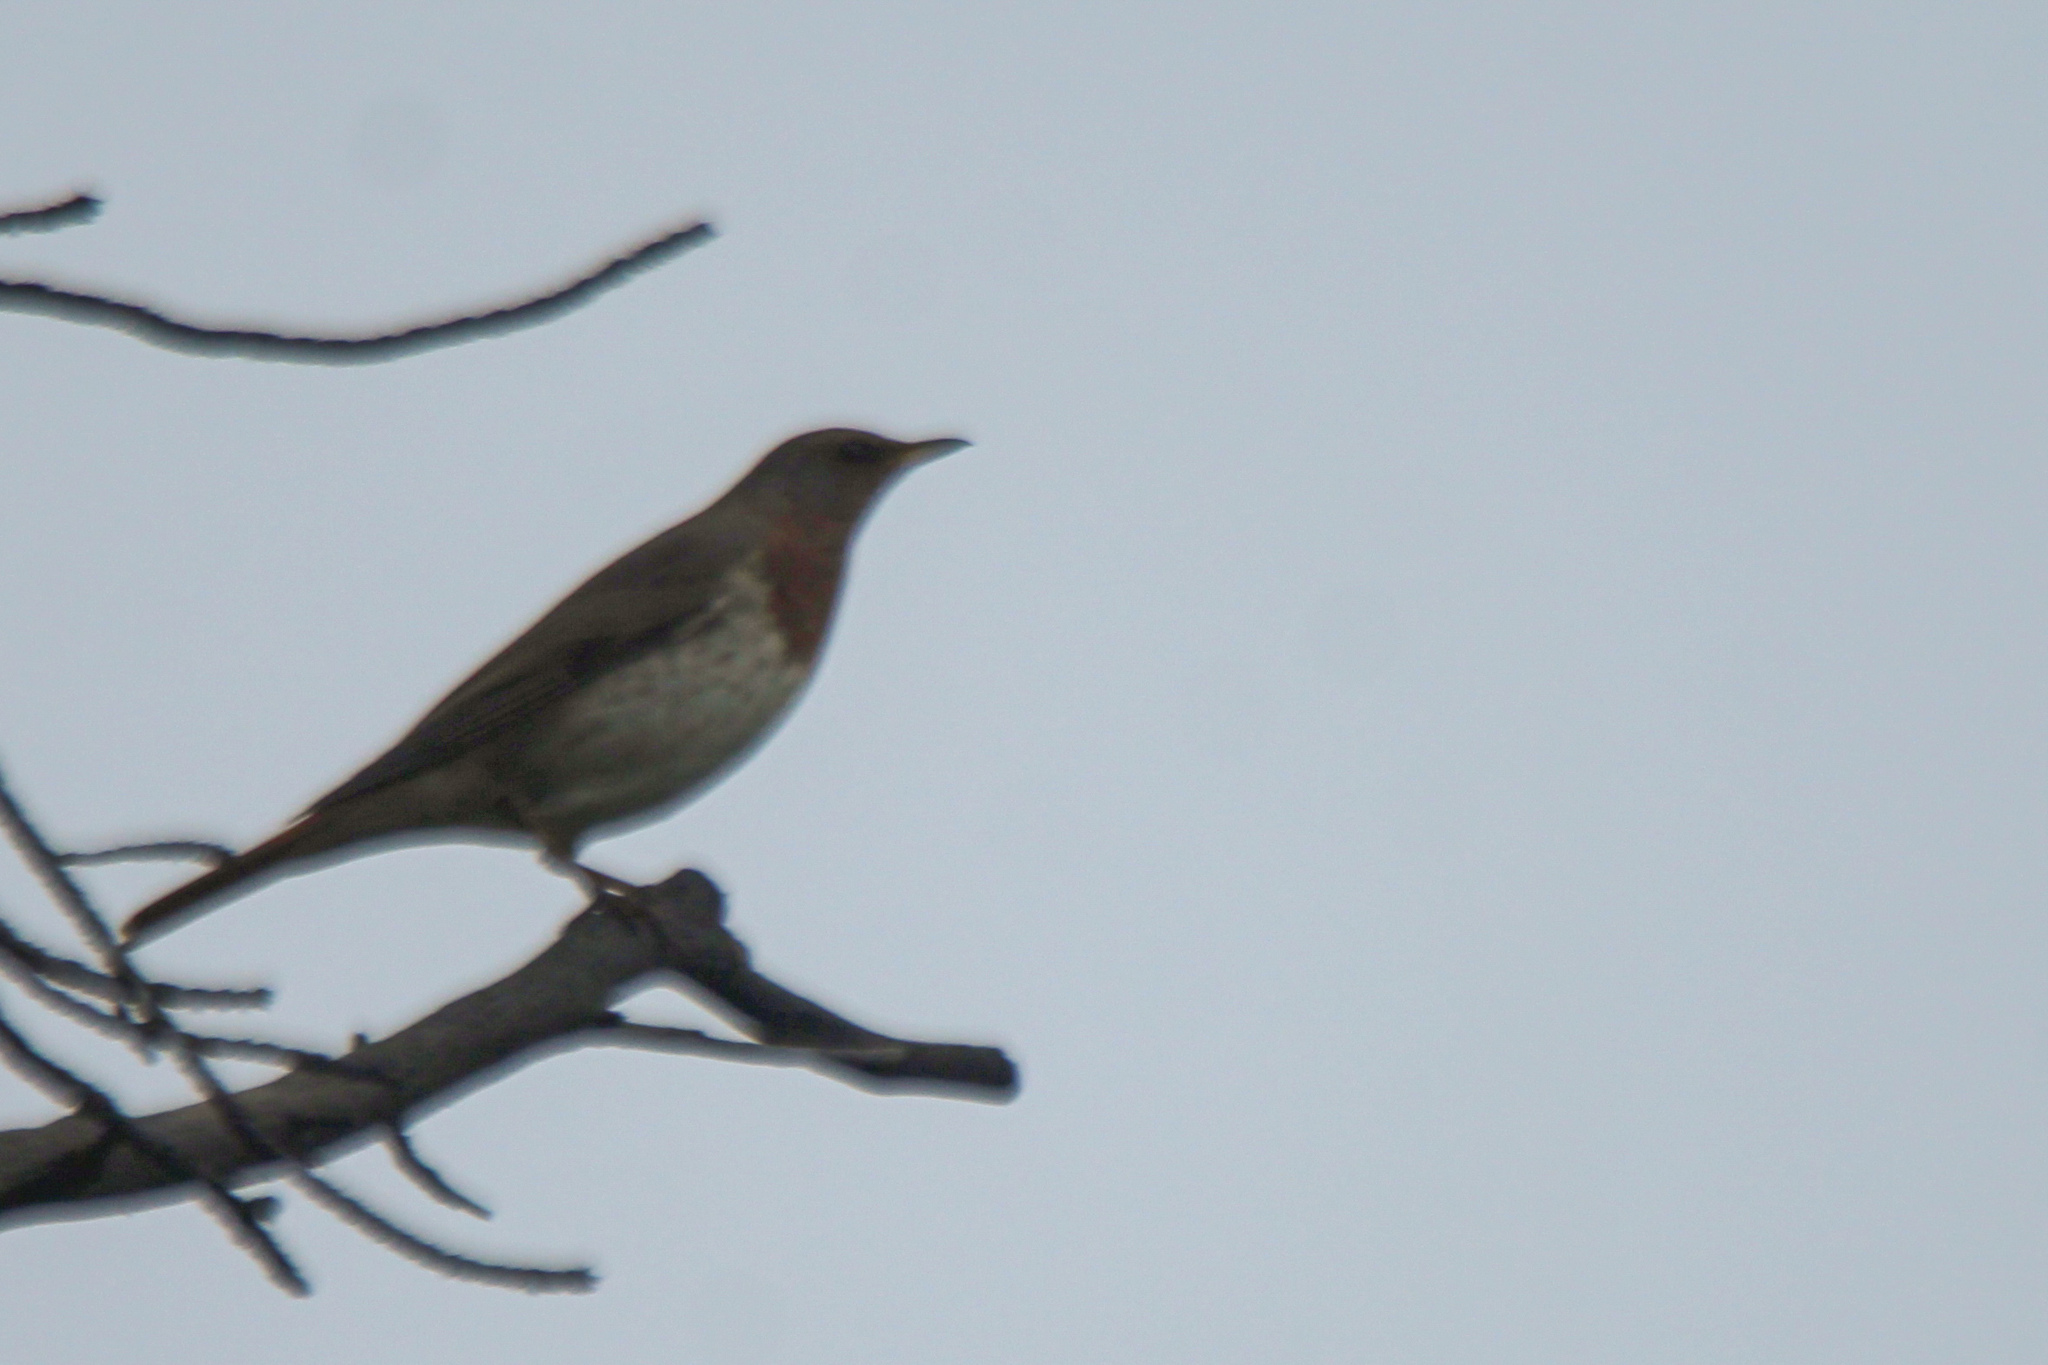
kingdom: Animalia
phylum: Chordata
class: Aves
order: Passeriformes
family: Turdidae
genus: Turdus
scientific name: Turdus ruficollis
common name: Red-throated thrush
